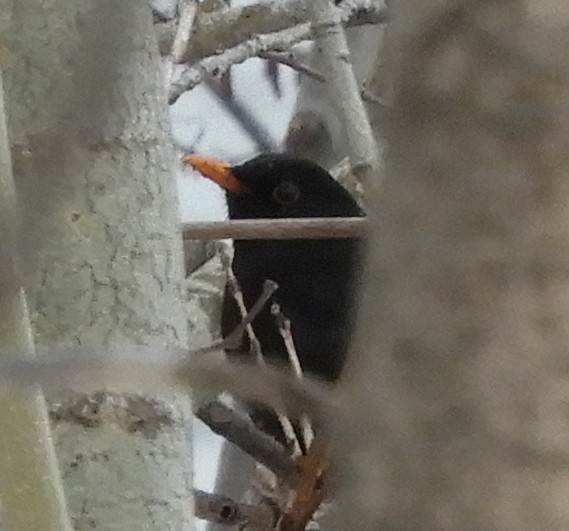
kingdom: Animalia
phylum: Chordata
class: Aves
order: Passeriformes
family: Turdidae
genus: Turdus
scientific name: Turdus merula
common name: Common blackbird
